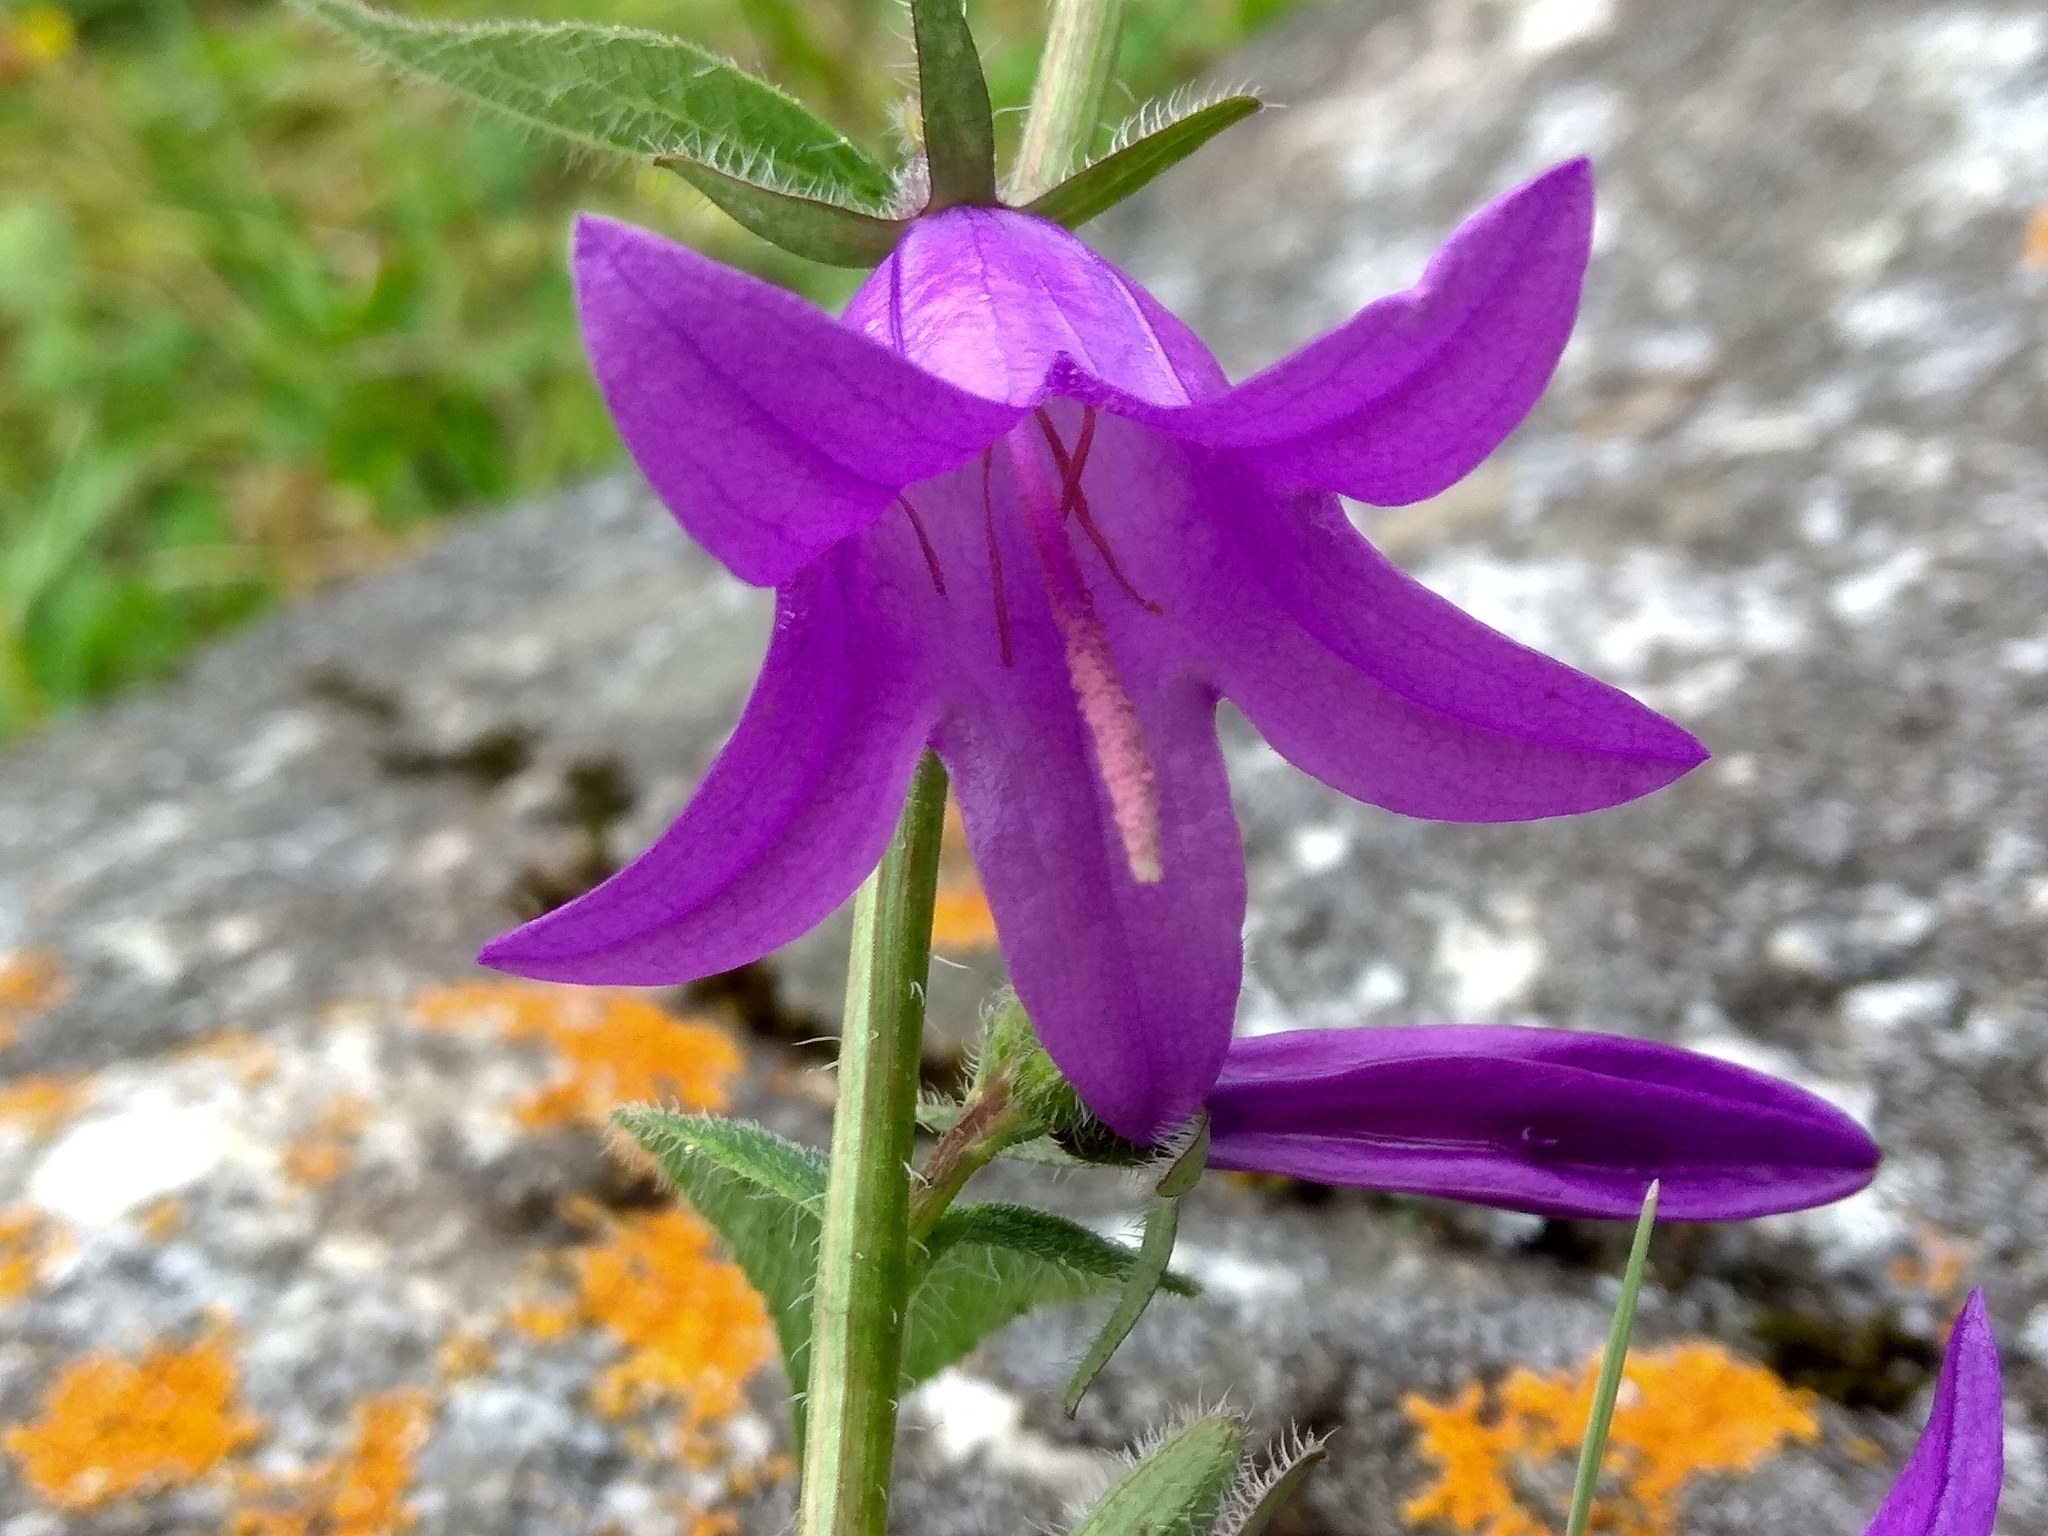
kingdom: Plantae
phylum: Tracheophyta
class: Magnoliopsida
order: Asterales
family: Campanulaceae
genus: Campanula
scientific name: Campanula rapunculoides
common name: Creeping bellflower
